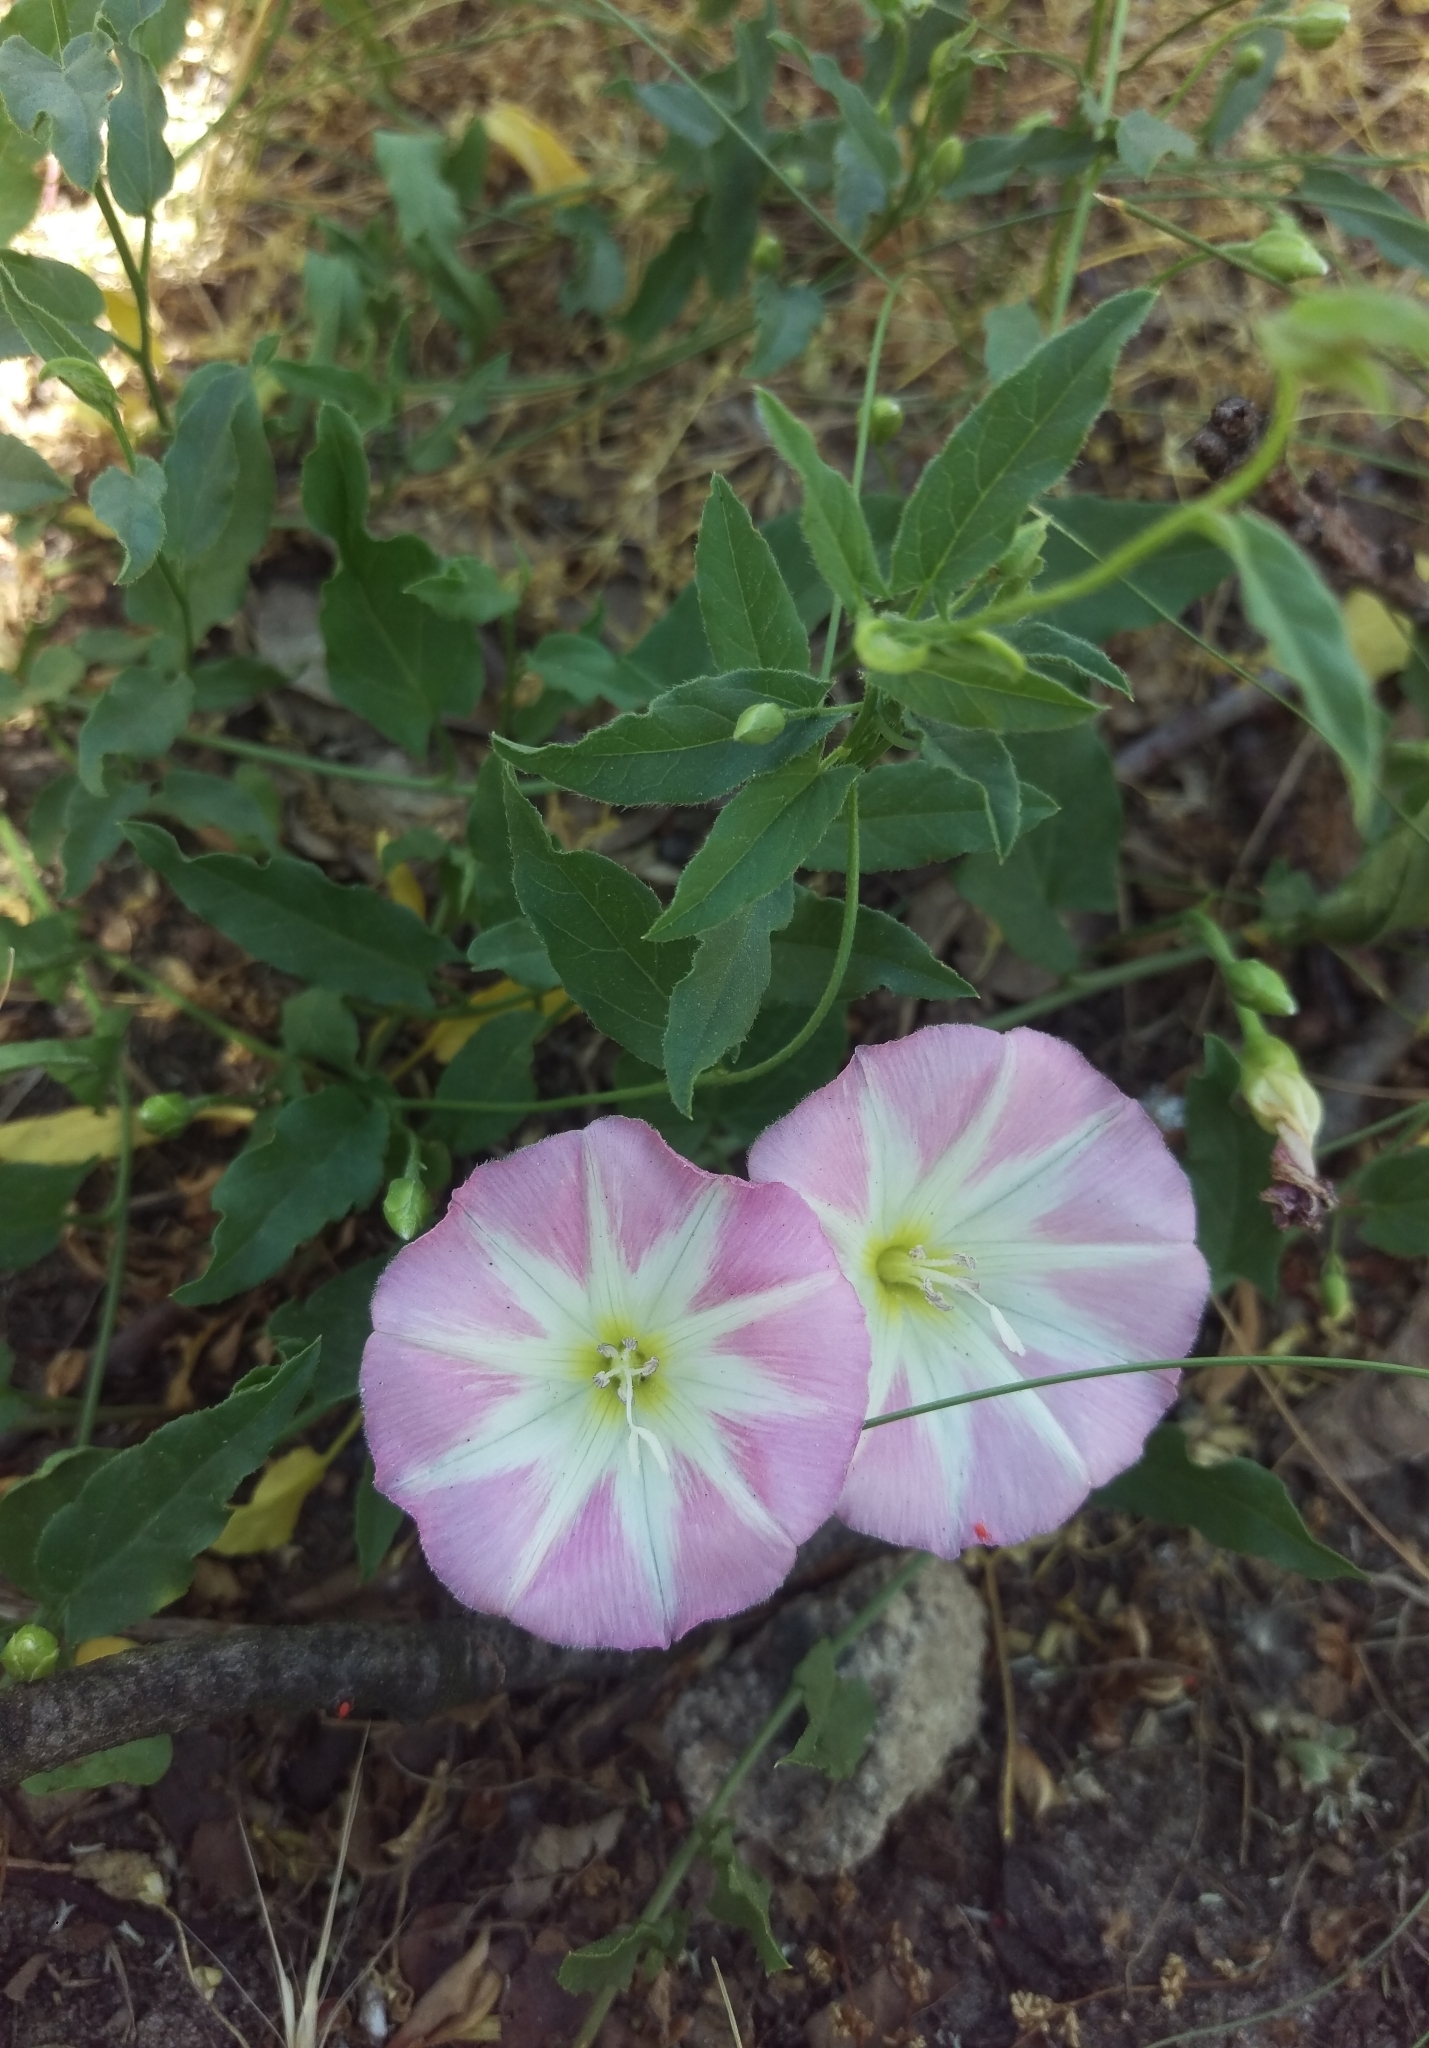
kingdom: Plantae
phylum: Tracheophyta
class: Magnoliopsida
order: Solanales
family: Convolvulaceae
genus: Convolvulus
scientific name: Convolvulus arvensis
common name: Field bindweed
